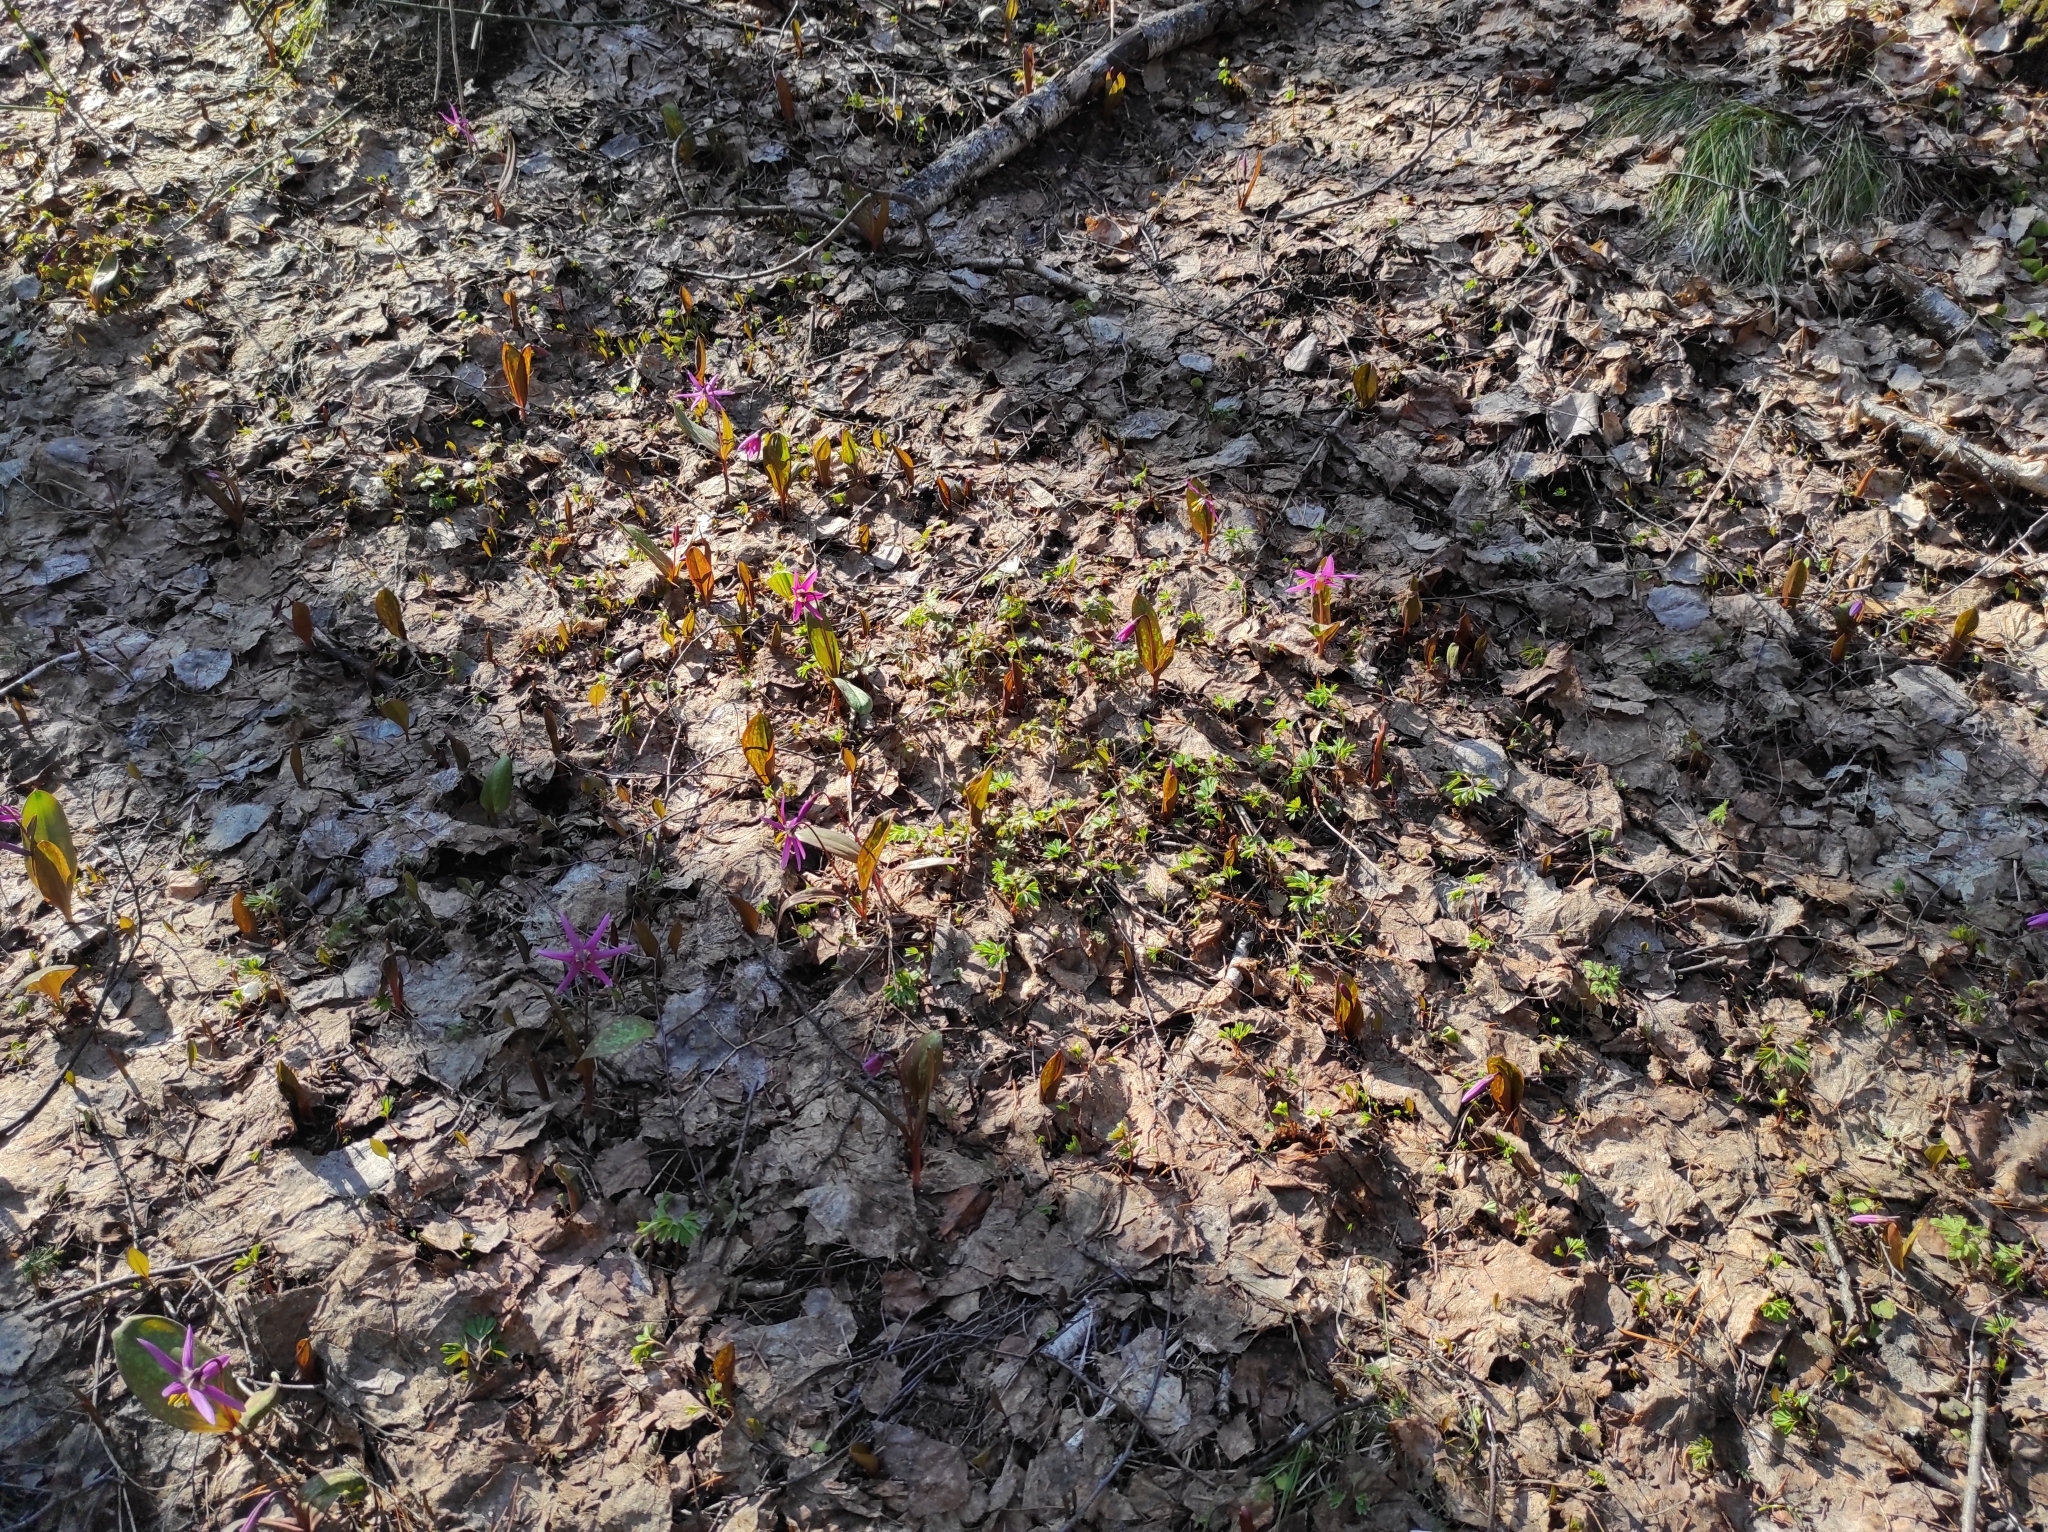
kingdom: Plantae
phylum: Tracheophyta
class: Liliopsida
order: Liliales
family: Liliaceae
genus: Erythronium
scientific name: Erythronium sibiricum
